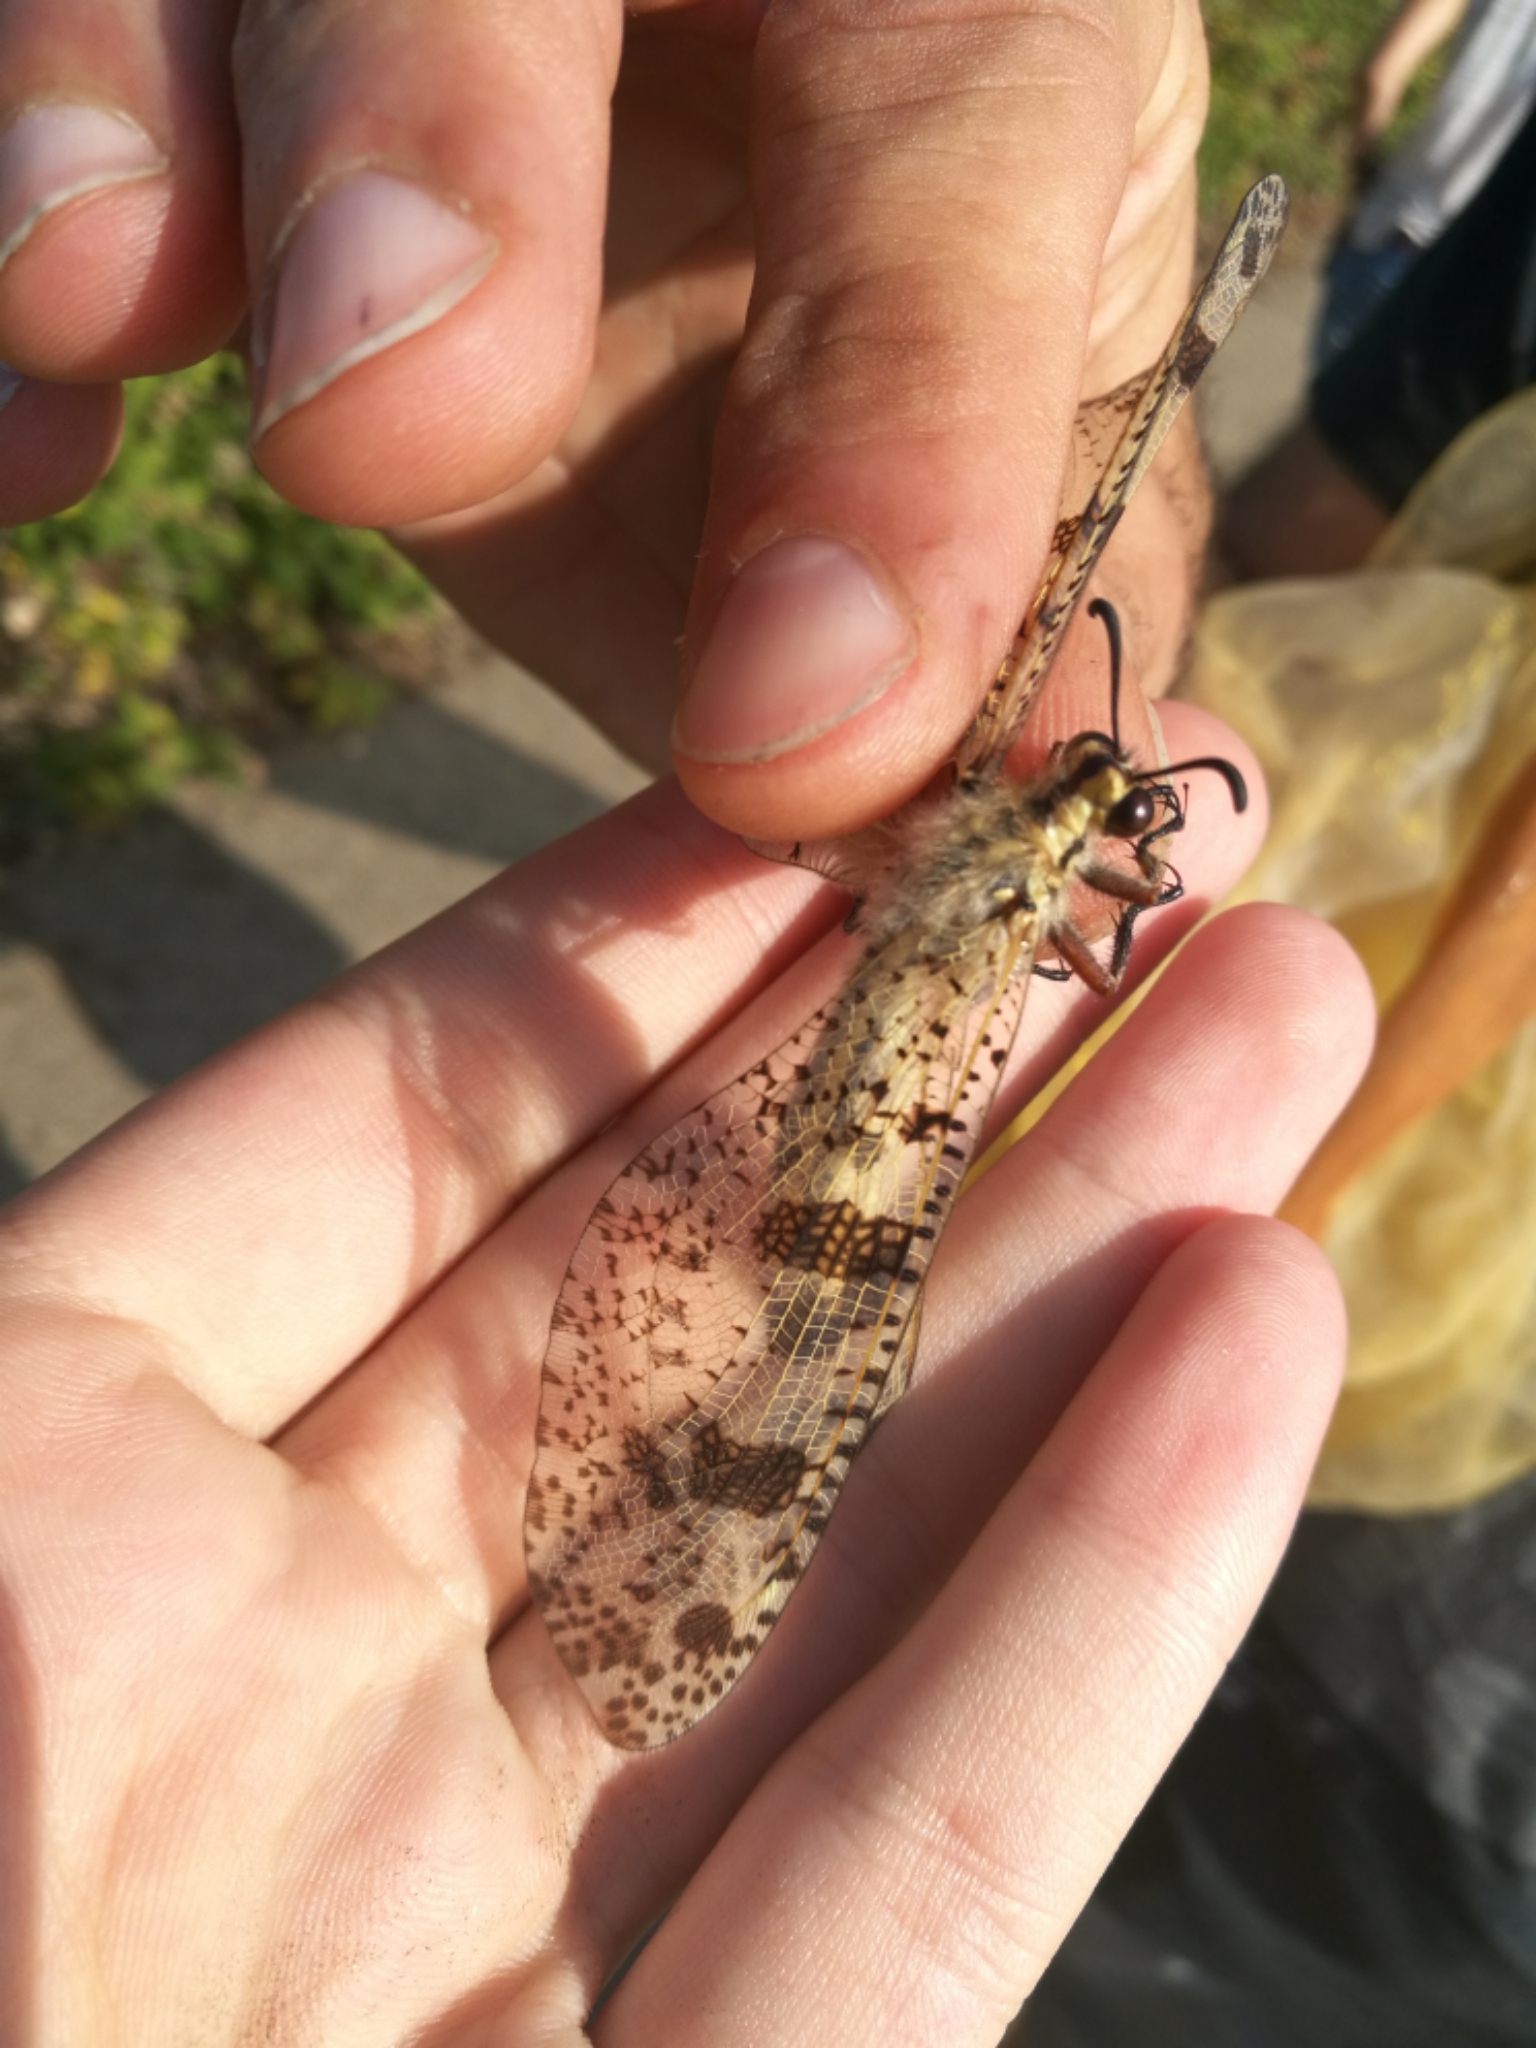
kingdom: Animalia
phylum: Arthropoda
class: Insecta
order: Neuroptera
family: Myrmeleontidae
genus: Palpares
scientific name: Palpares libelluloides
